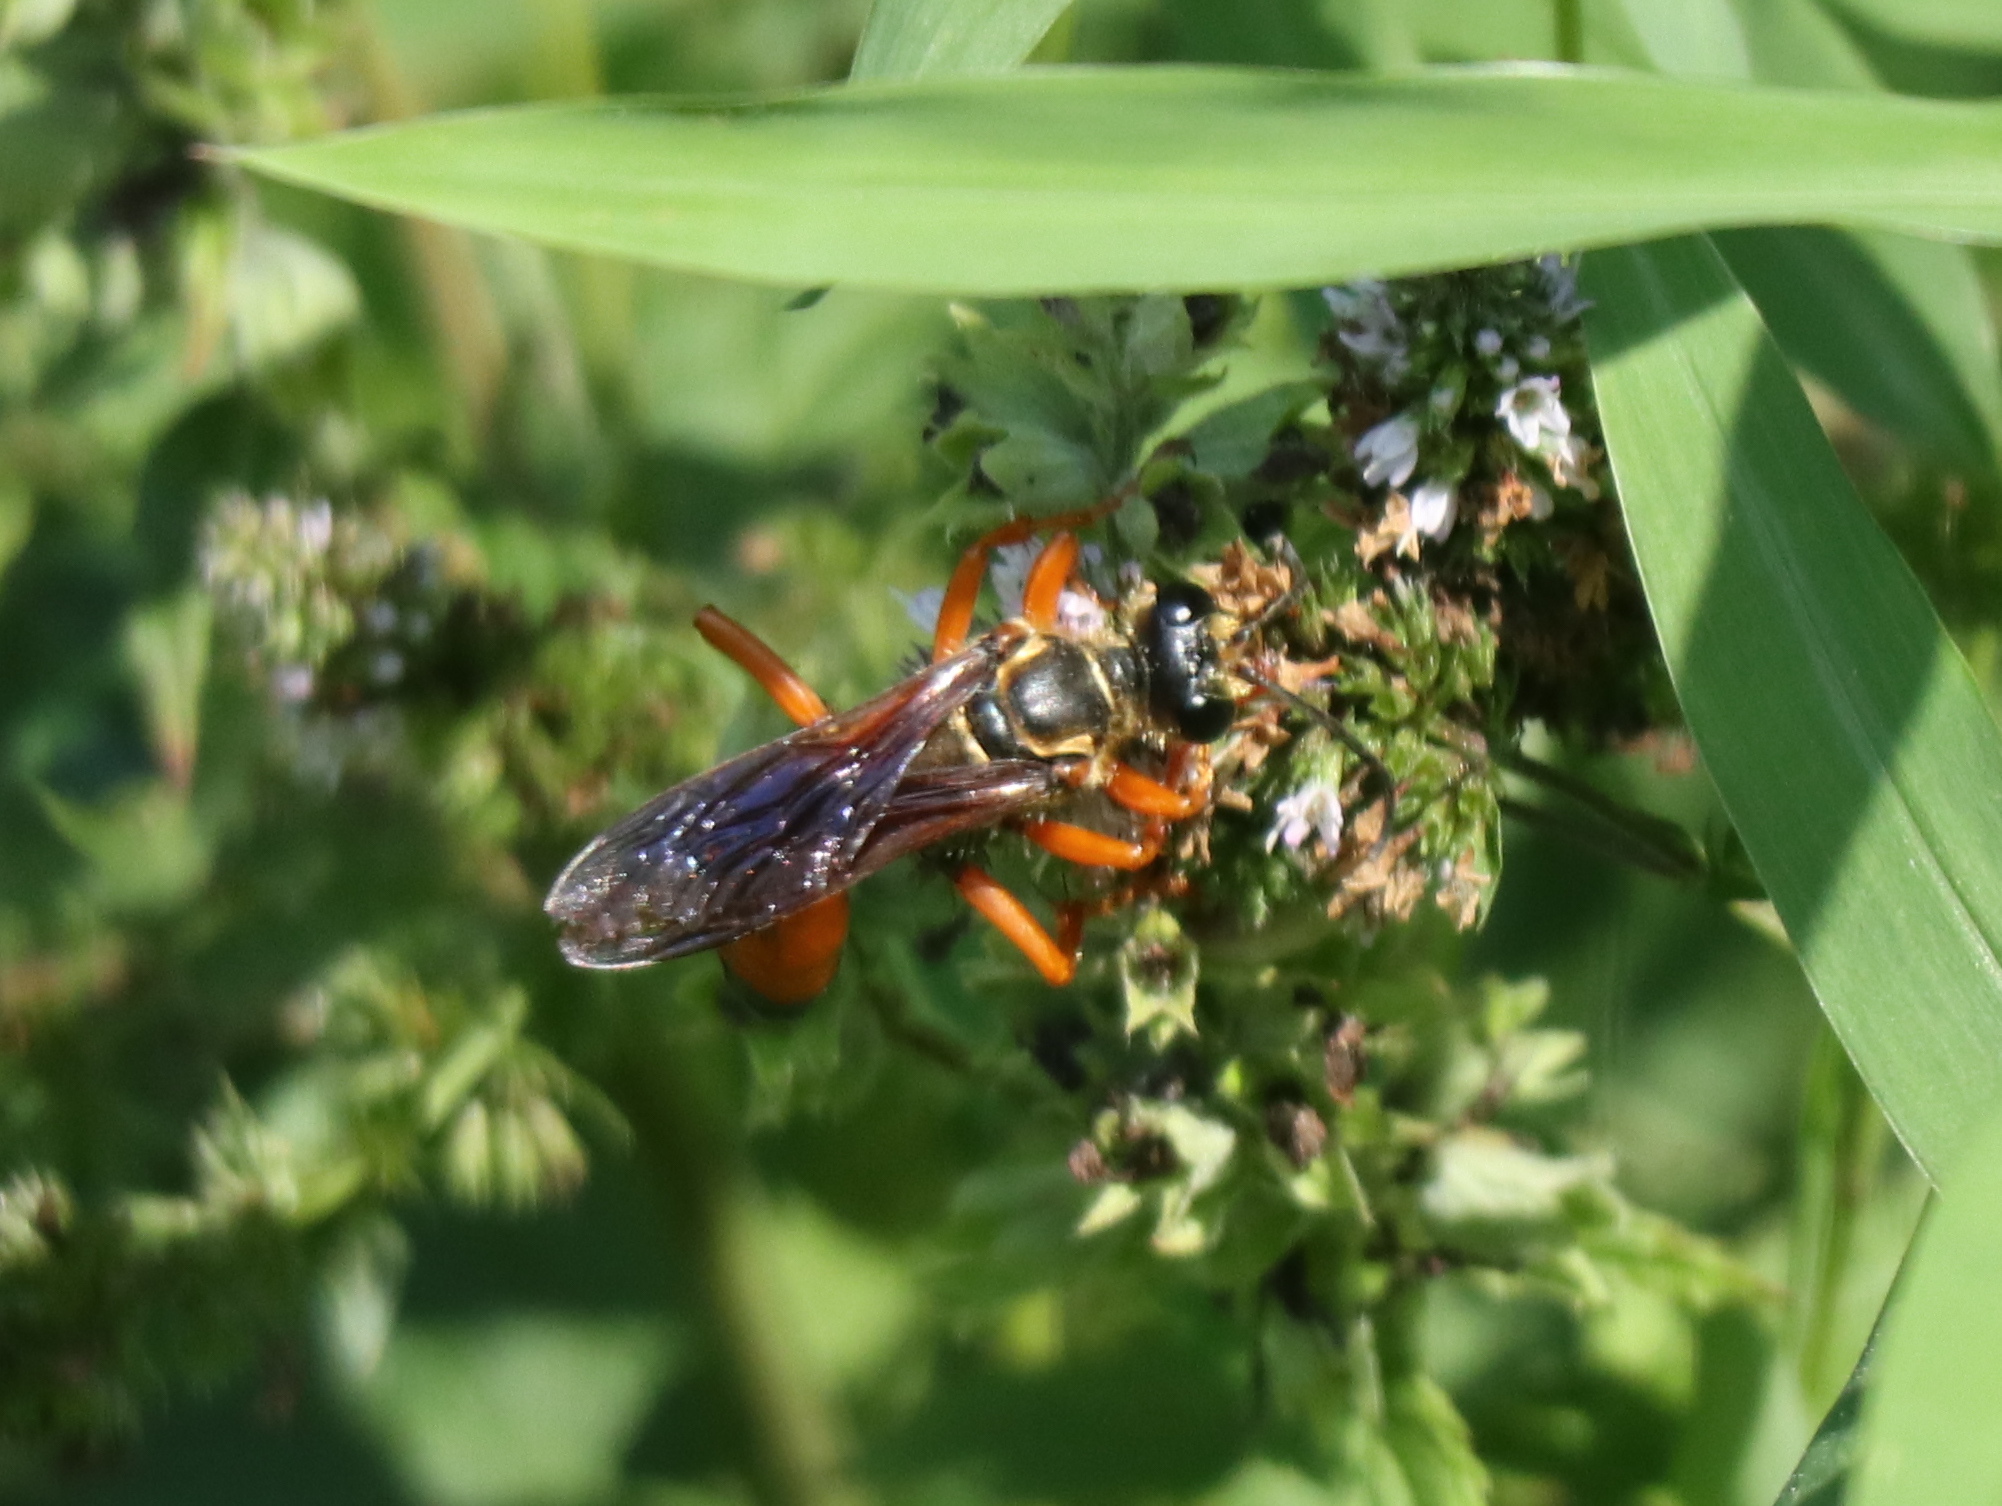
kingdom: Animalia
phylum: Arthropoda
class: Insecta
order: Hymenoptera
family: Sphecidae
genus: Sphex
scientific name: Sphex ichneumoneus
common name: Great golden digger wasp
